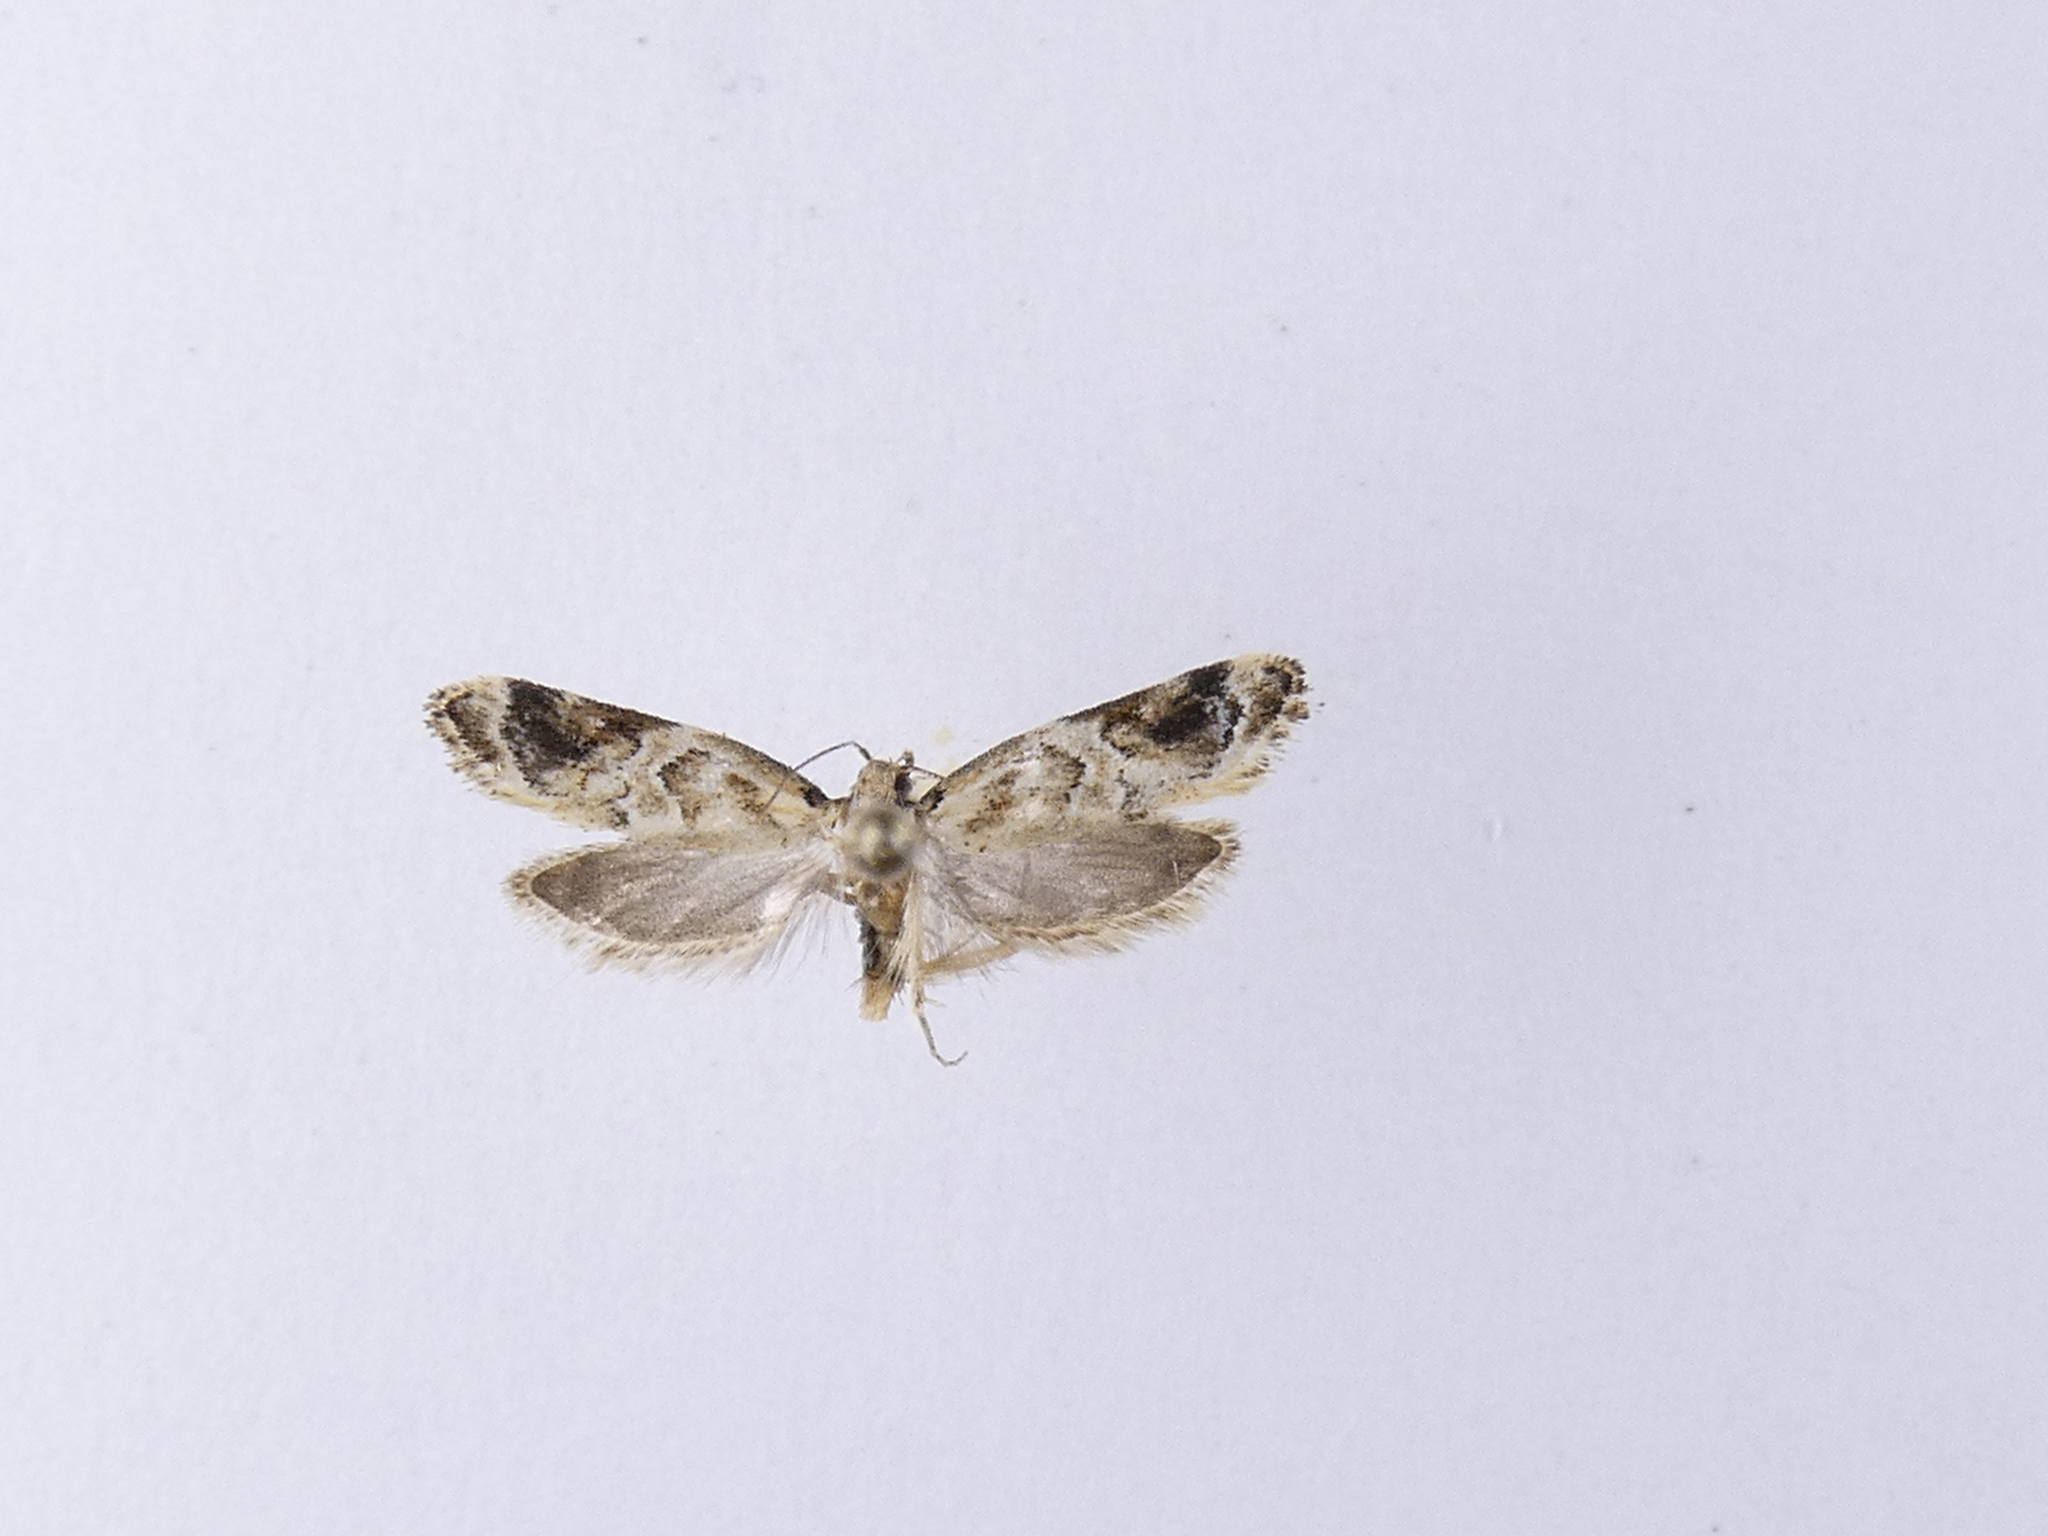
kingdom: Animalia
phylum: Arthropoda
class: Insecta
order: Lepidoptera
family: Oecophoridae
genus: Trachypepla
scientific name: Trachypepla aspidephora
